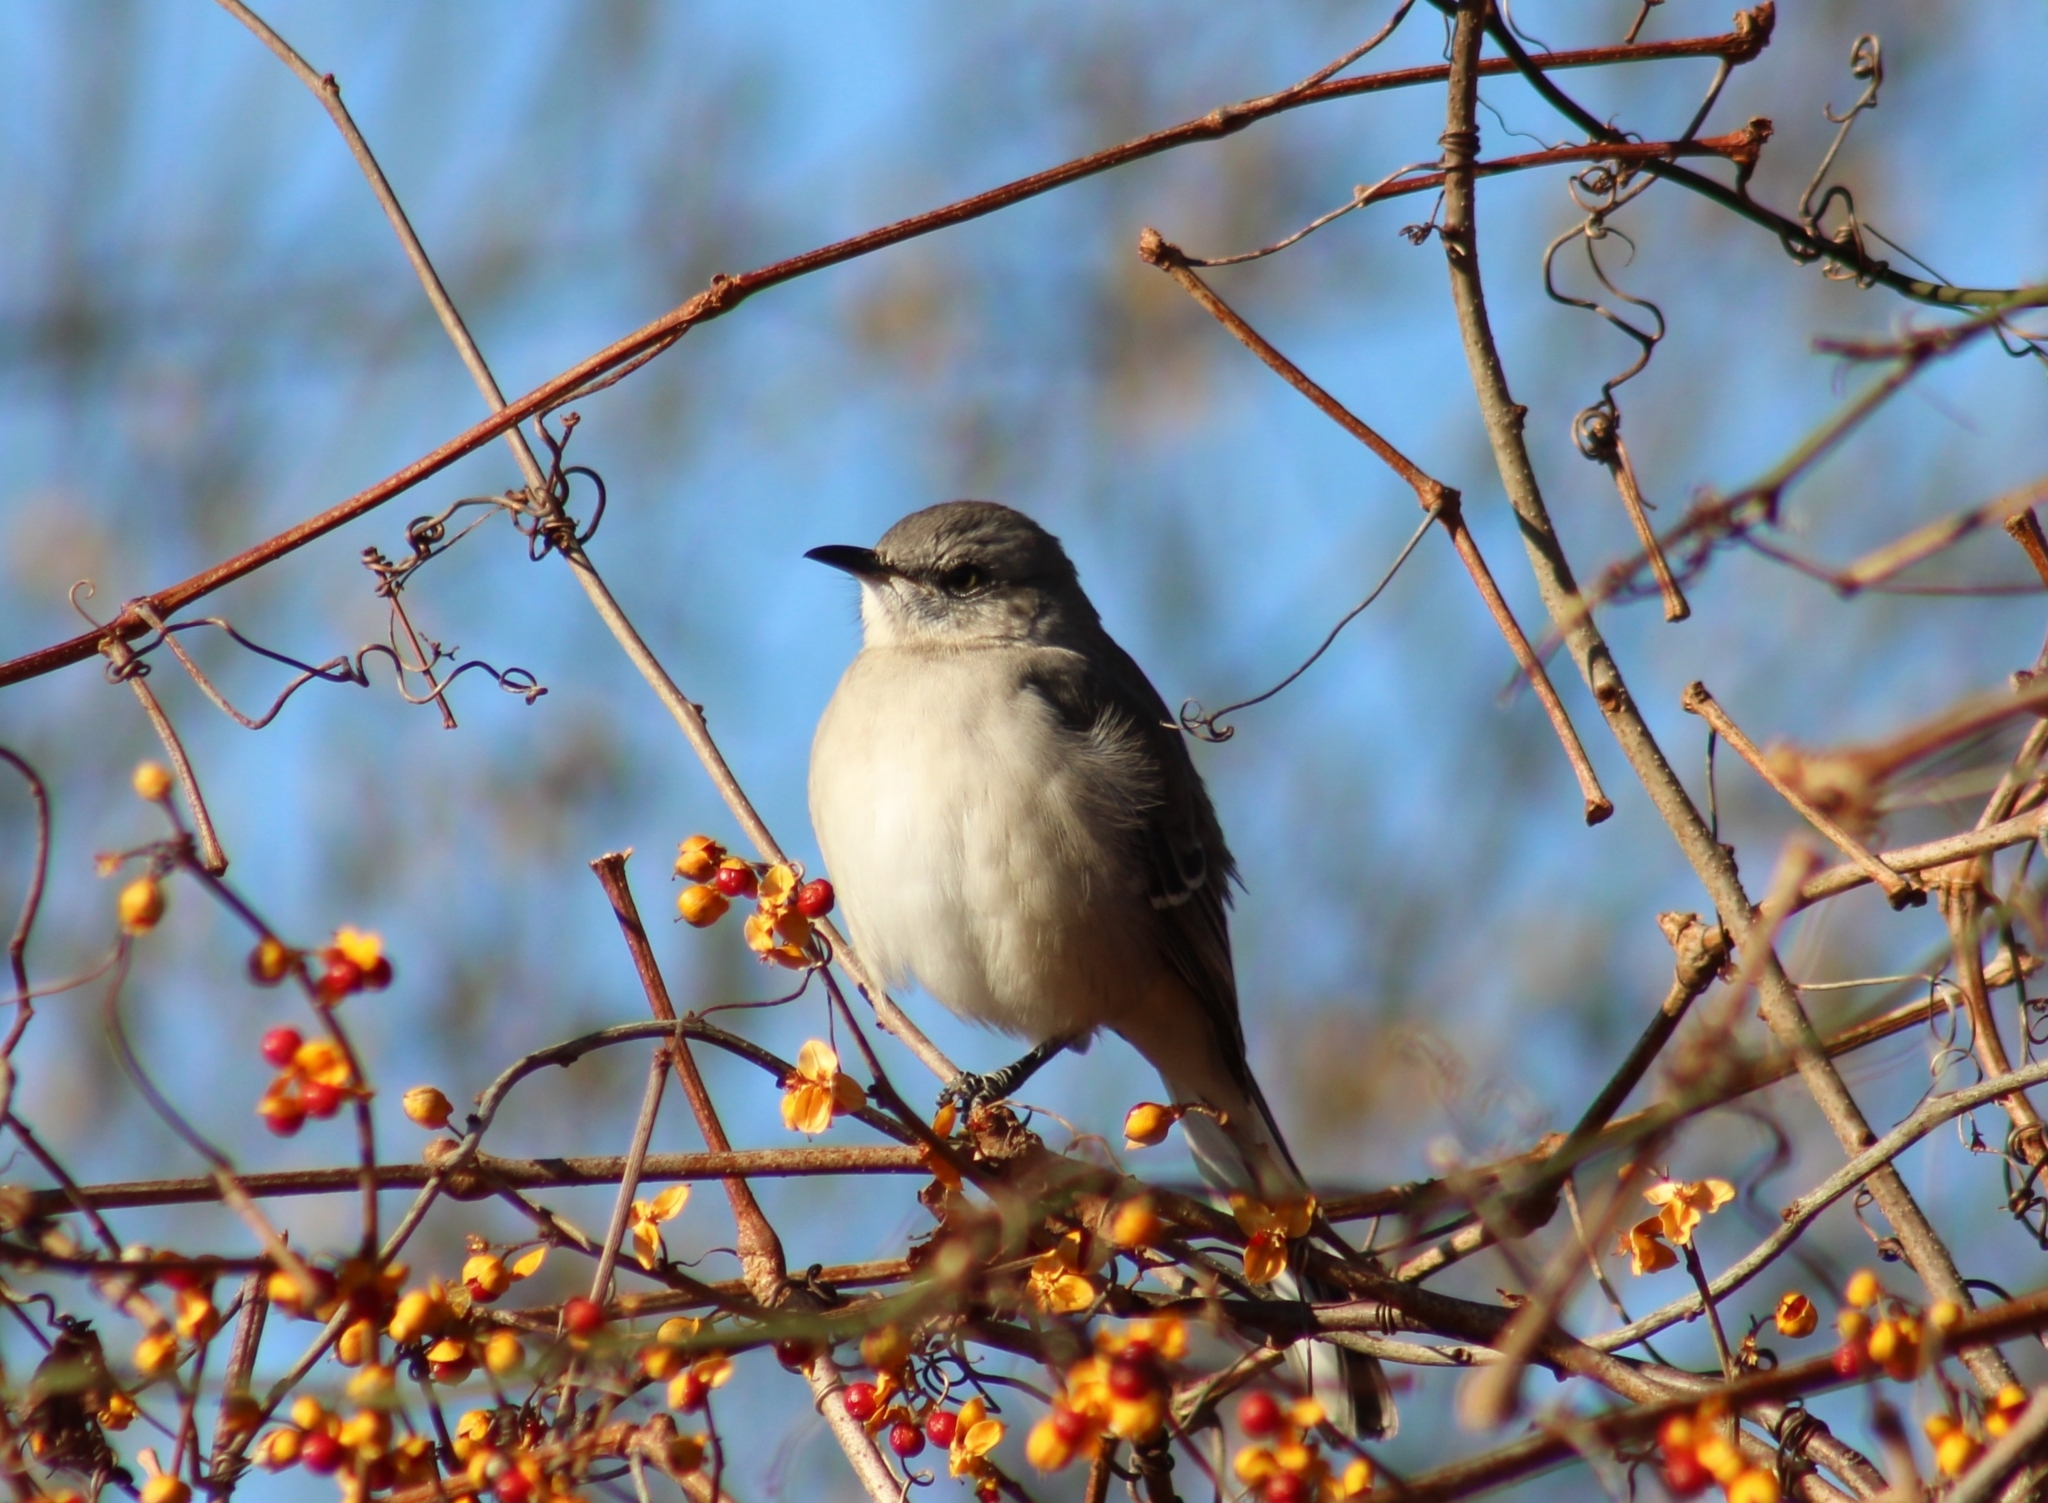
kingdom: Animalia
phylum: Chordata
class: Aves
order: Passeriformes
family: Mimidae
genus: Mimus
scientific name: Mimus polyglottos
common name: Northern mockingbird
